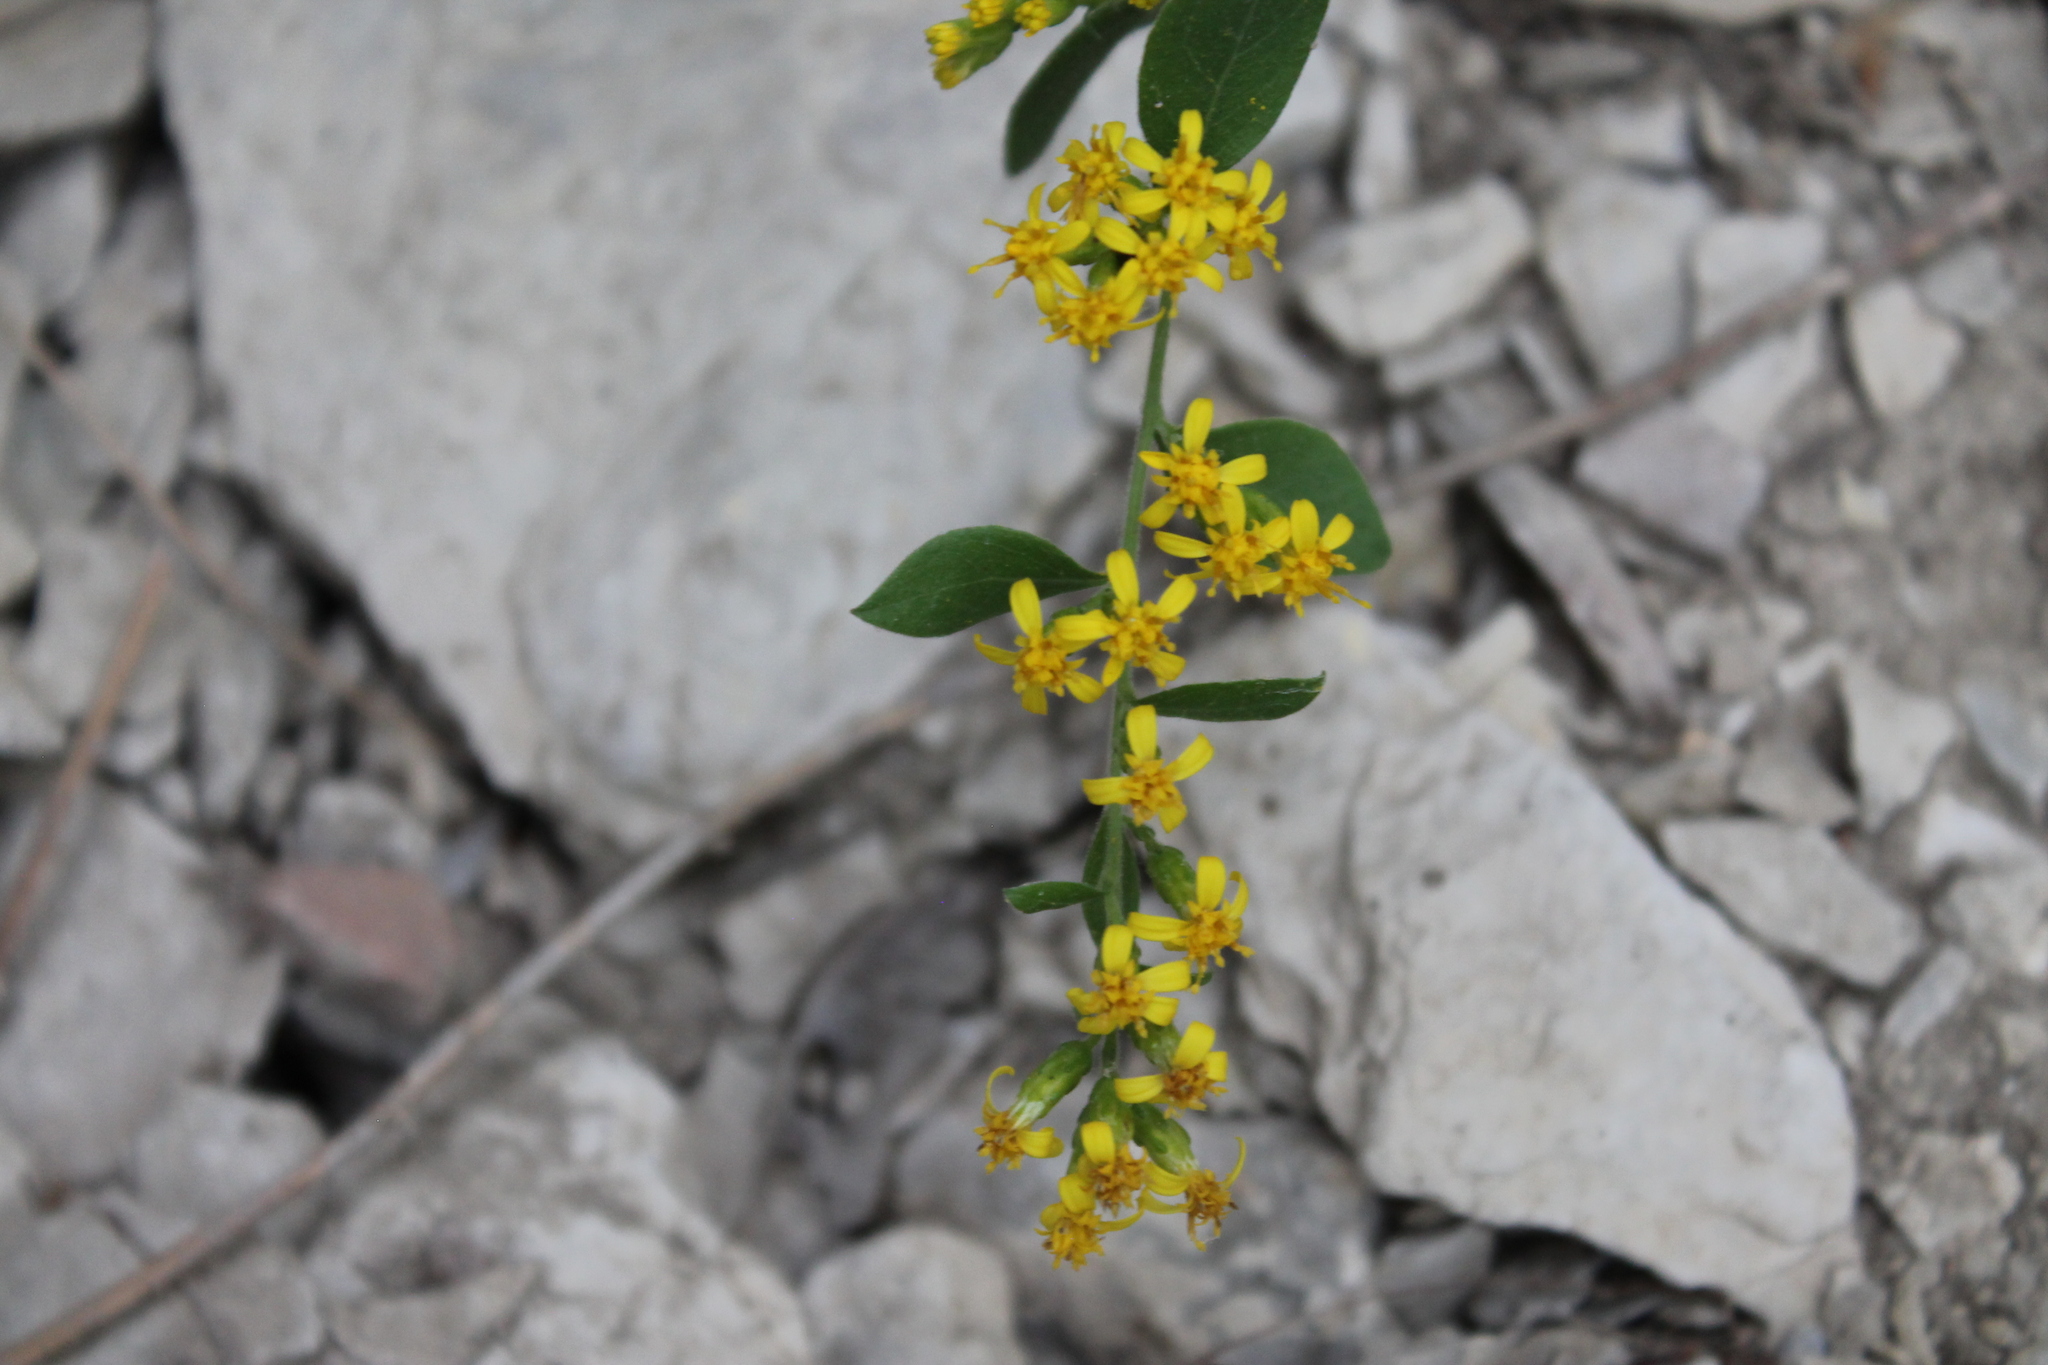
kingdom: Plantae
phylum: Tracheophyta
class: Magnoliopsida
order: Asterales
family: Asteraceae
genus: Solidago
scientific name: Solidago drummondii
